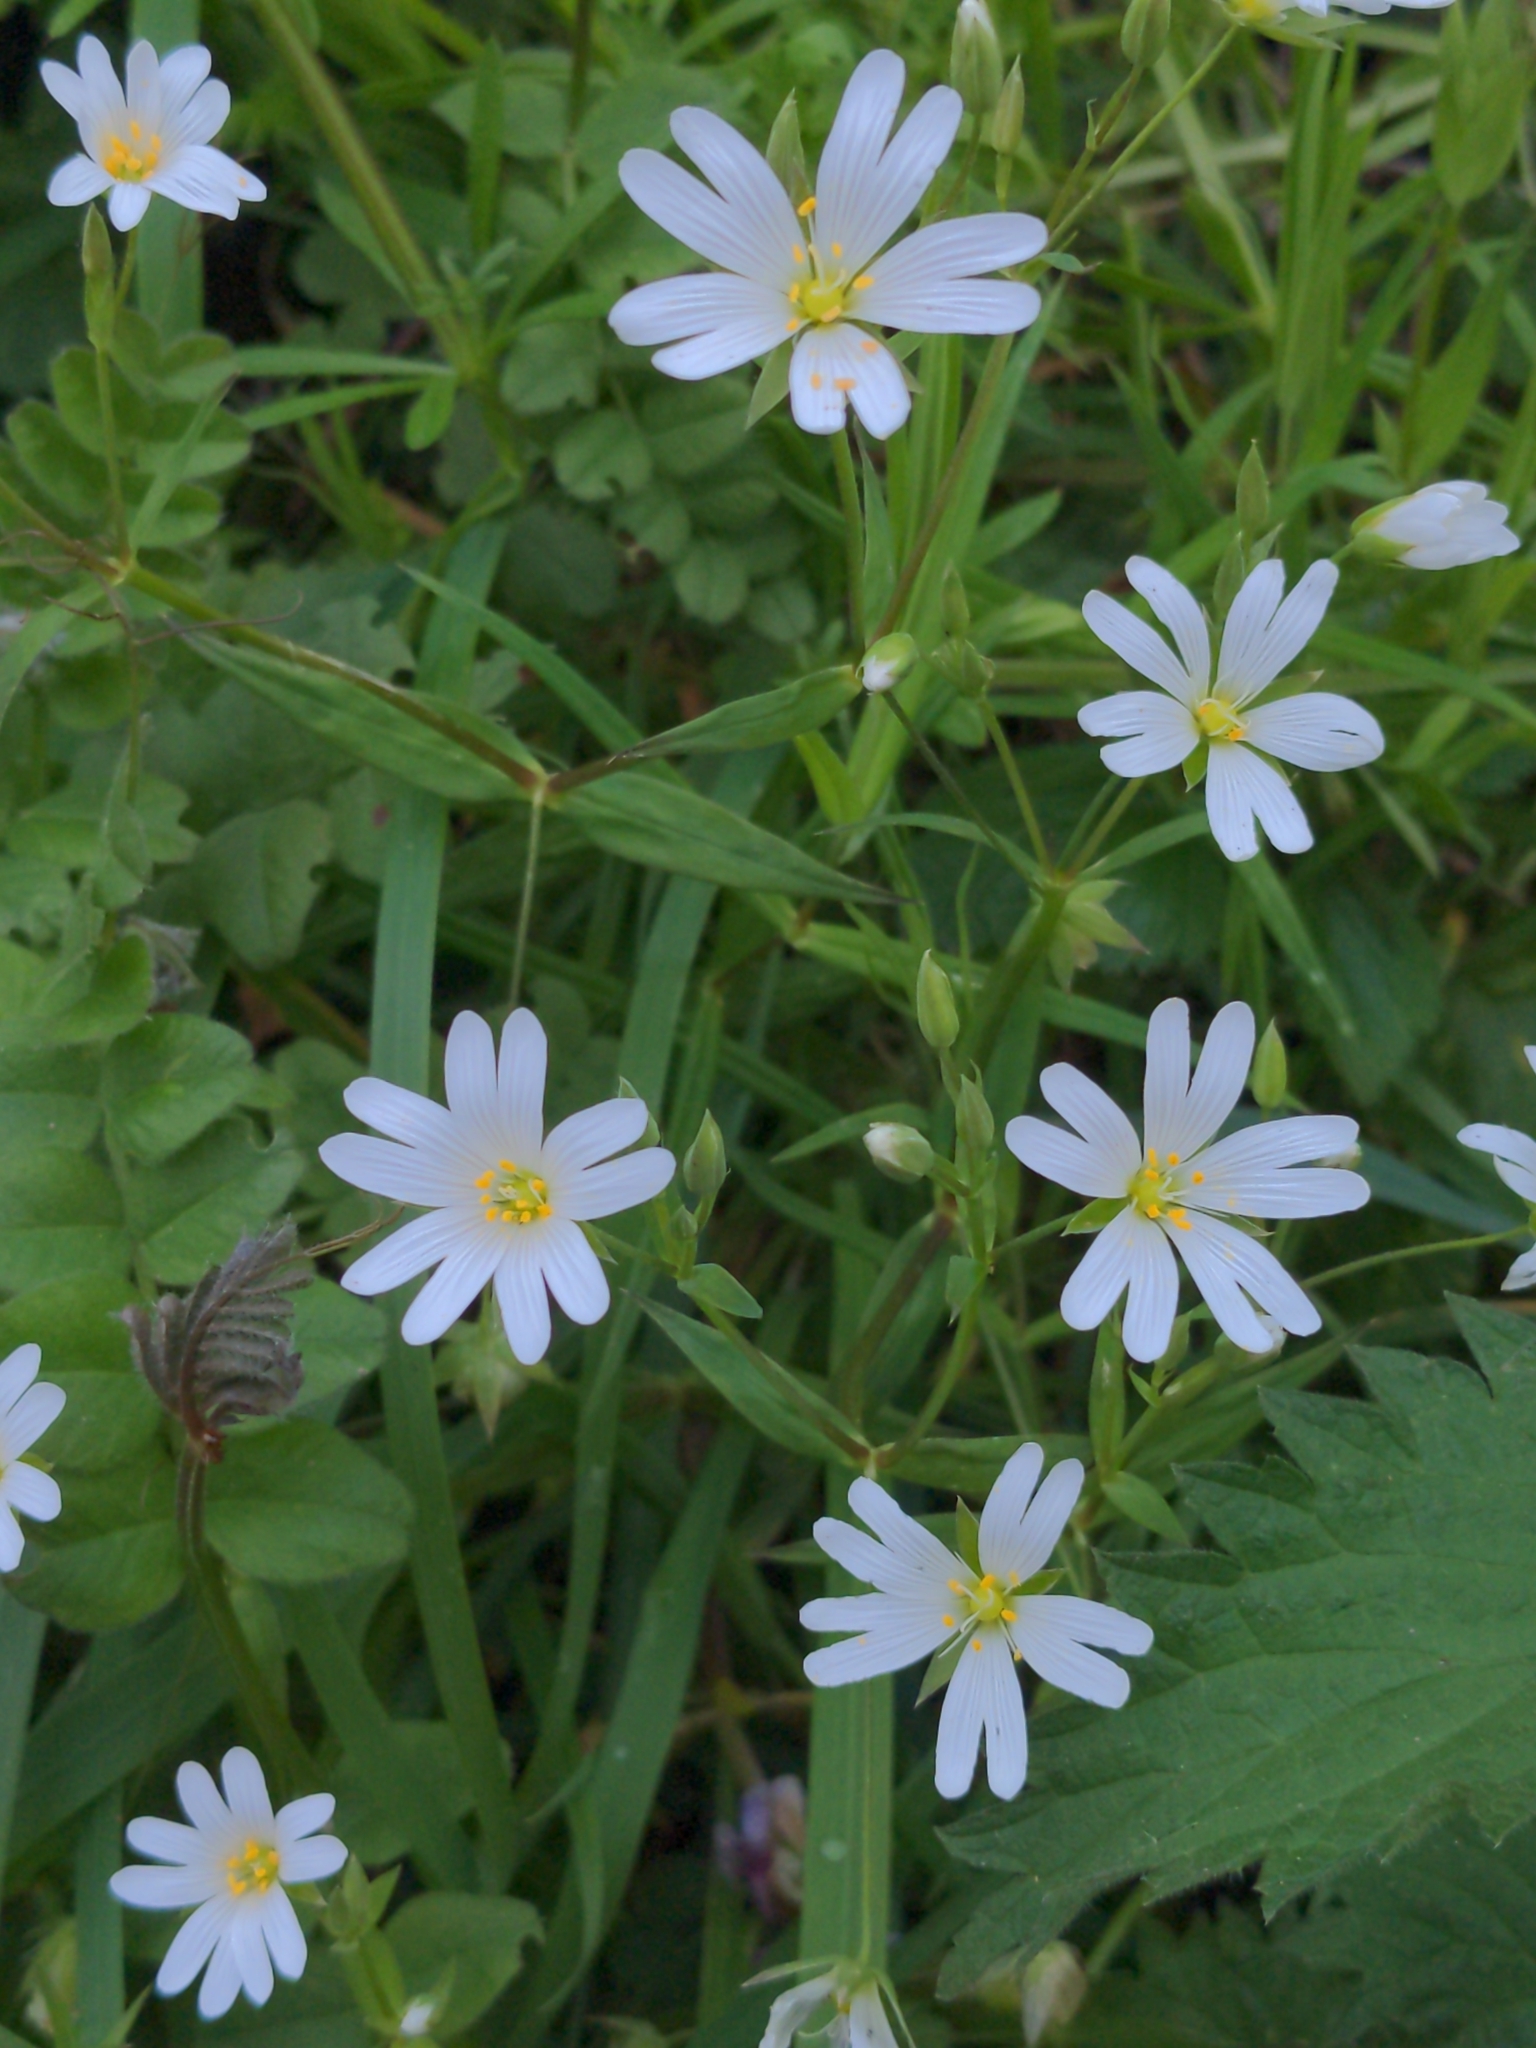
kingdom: Plantae
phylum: Tracheophyta
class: Magnoliopsida
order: Caryophyllales
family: Caryophyllaceae
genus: Rabelera
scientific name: Rabelera holostea
